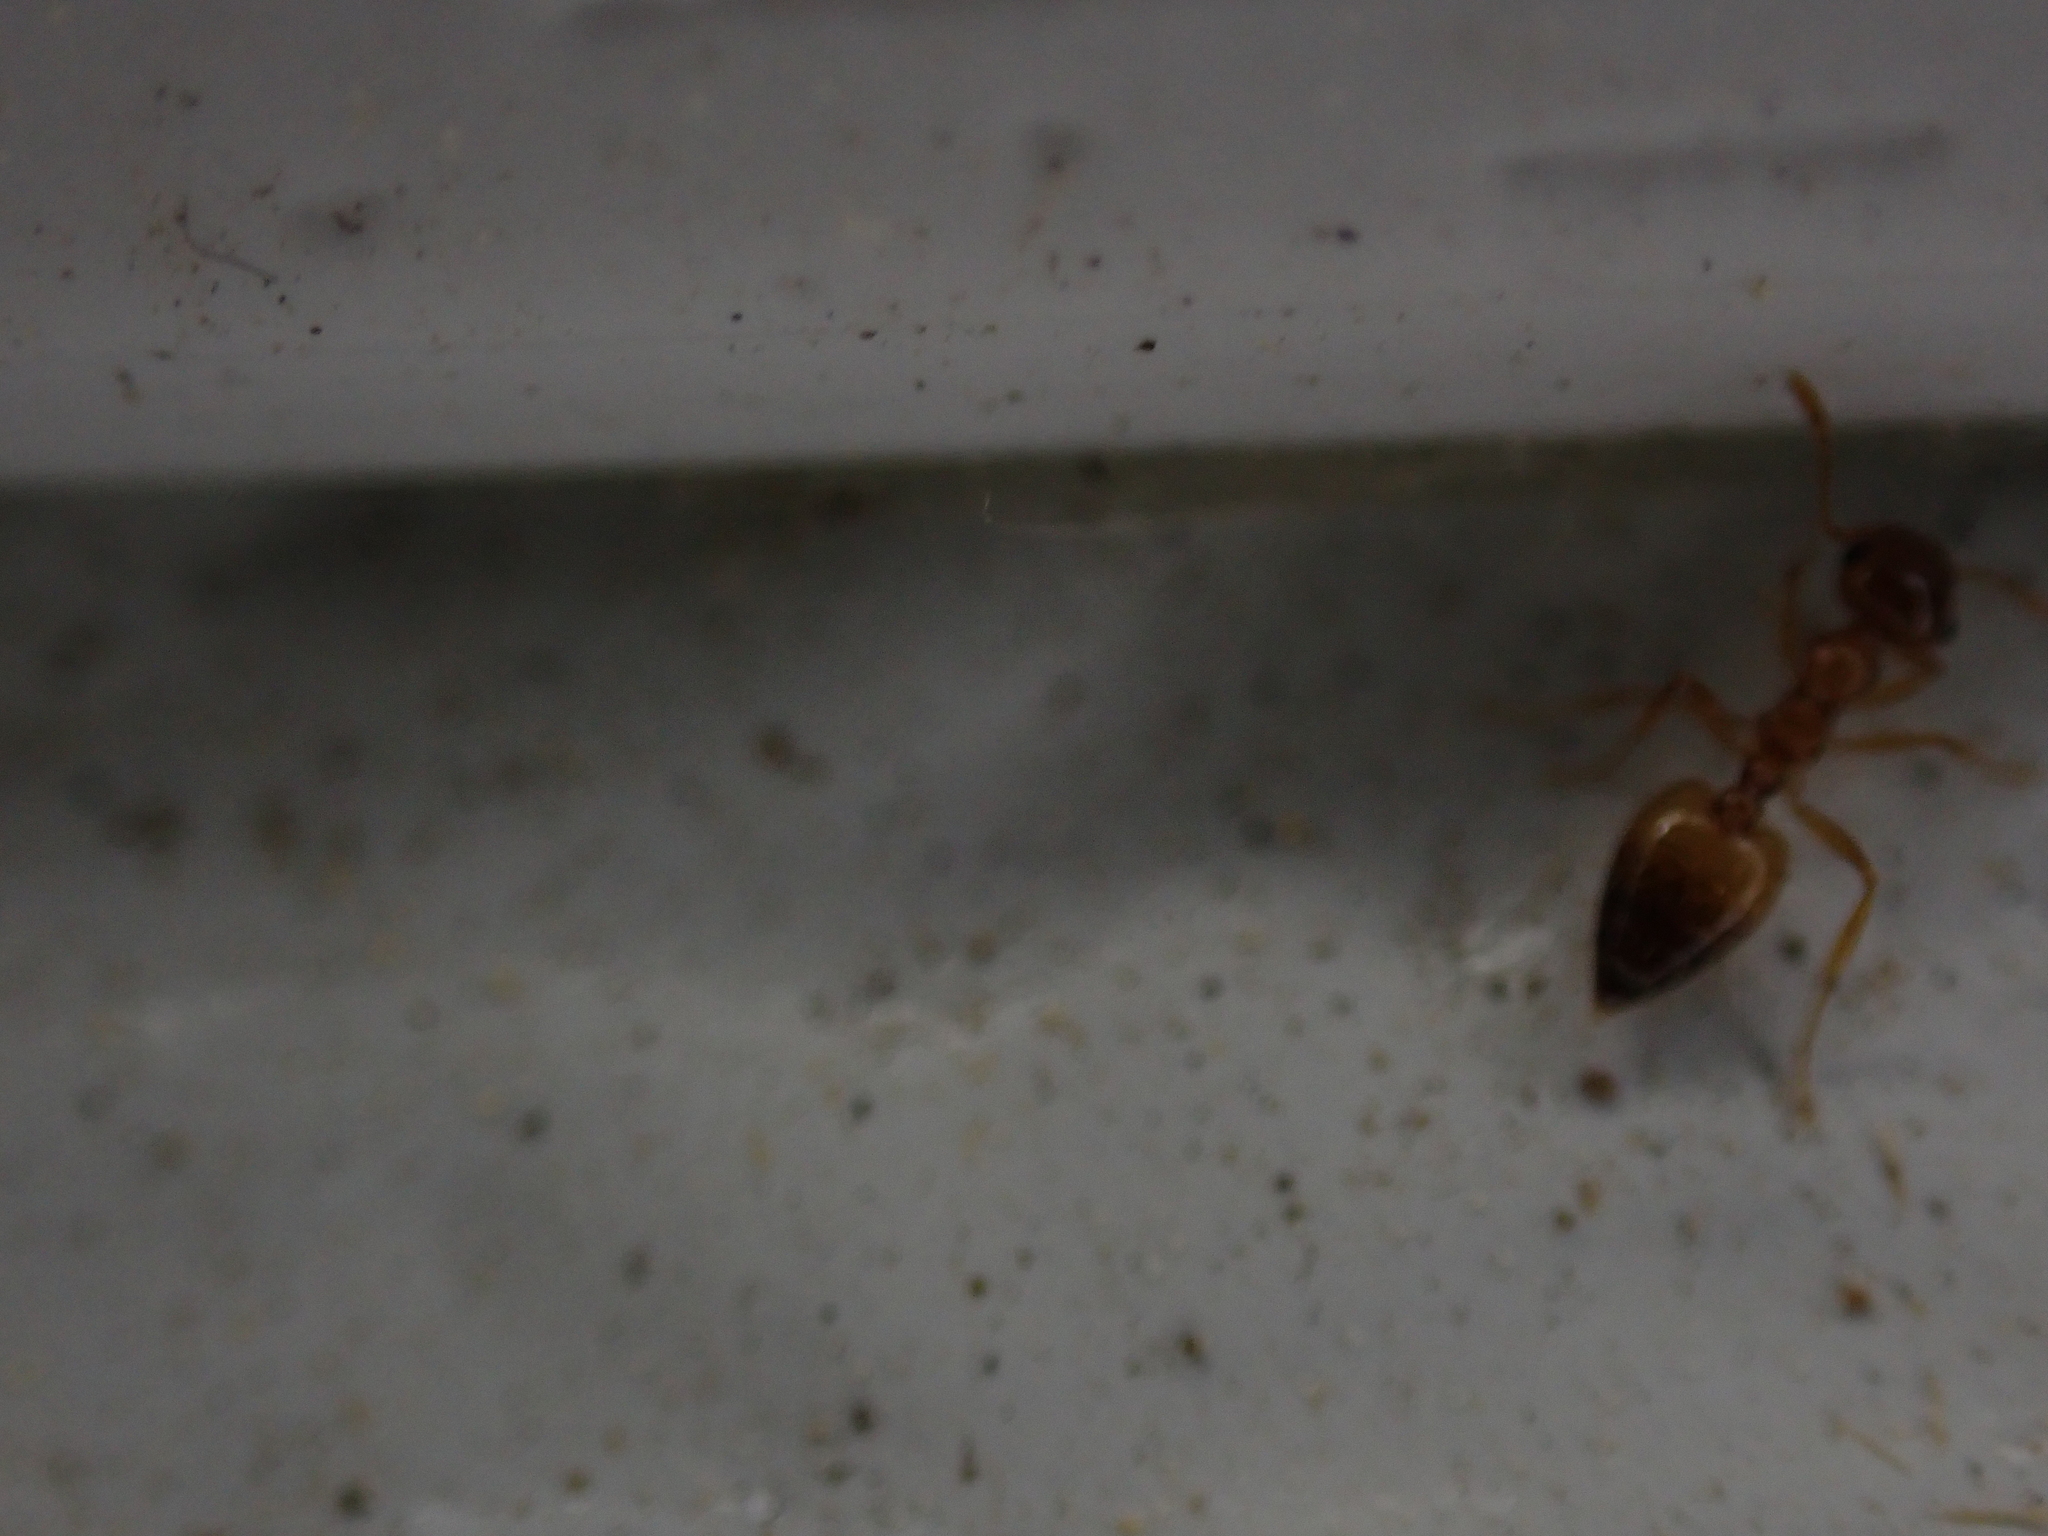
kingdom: Animalia
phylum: Arthropoda
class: Insecta
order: Hymenoptera
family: Formicidae
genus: Crematogaster
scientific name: Crematogaster missouriensis
